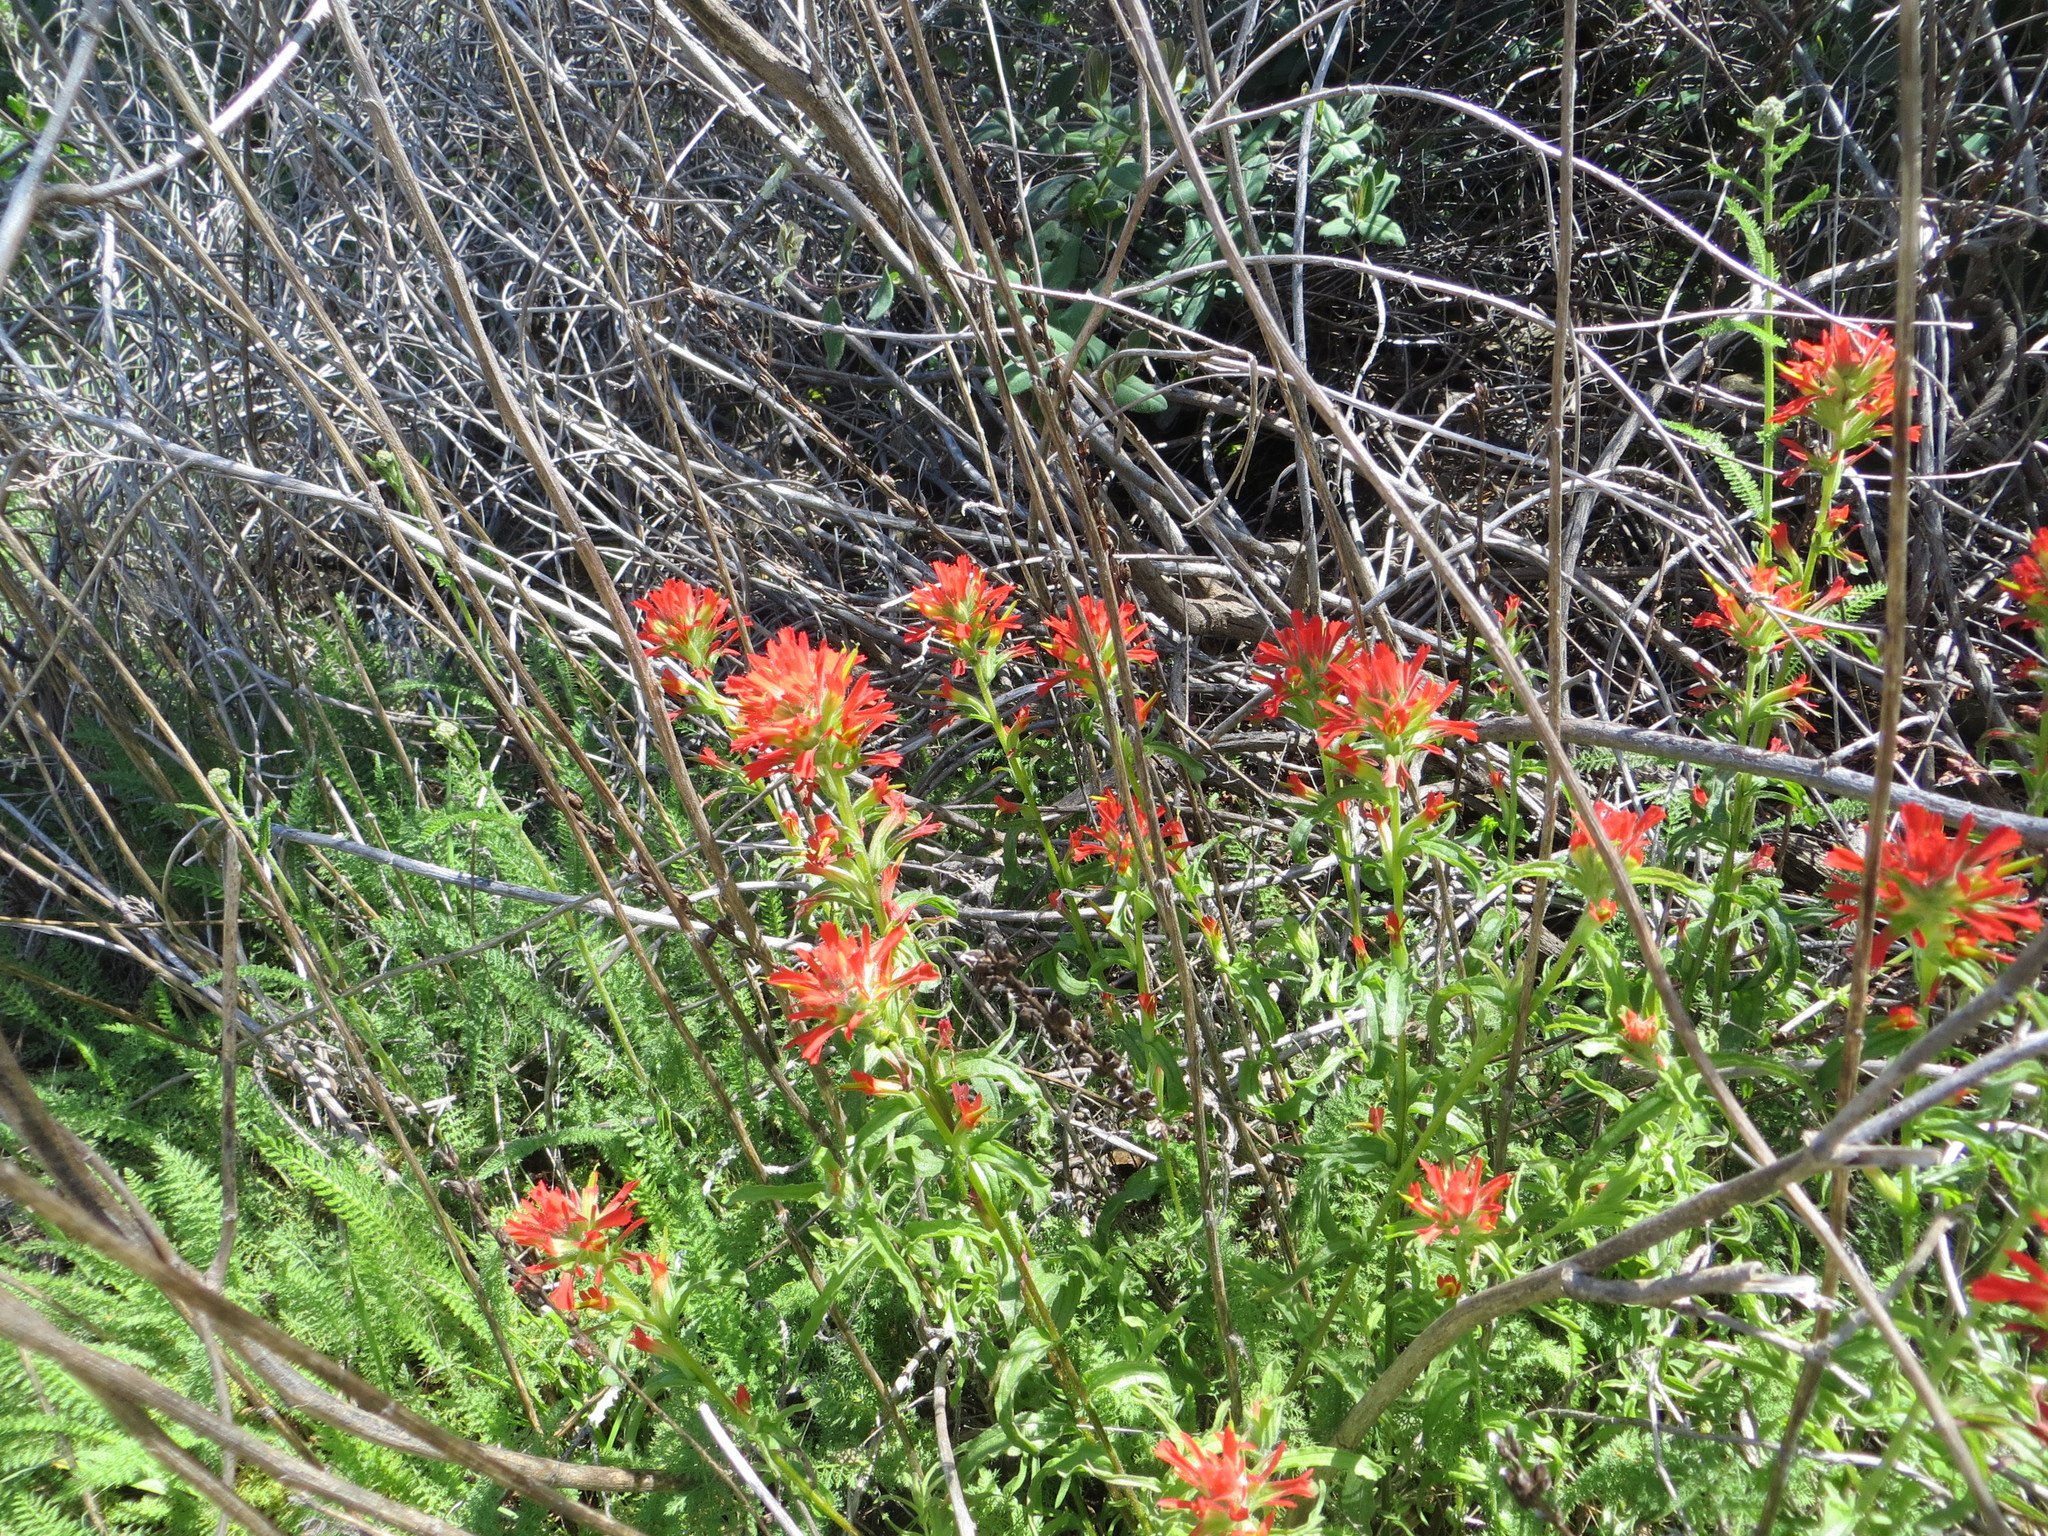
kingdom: Plantae
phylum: Tracheophyta
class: Magnoliopsida
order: Lamiales
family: Orobanchaceae
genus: Castilleja
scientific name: Castilleja affinis
